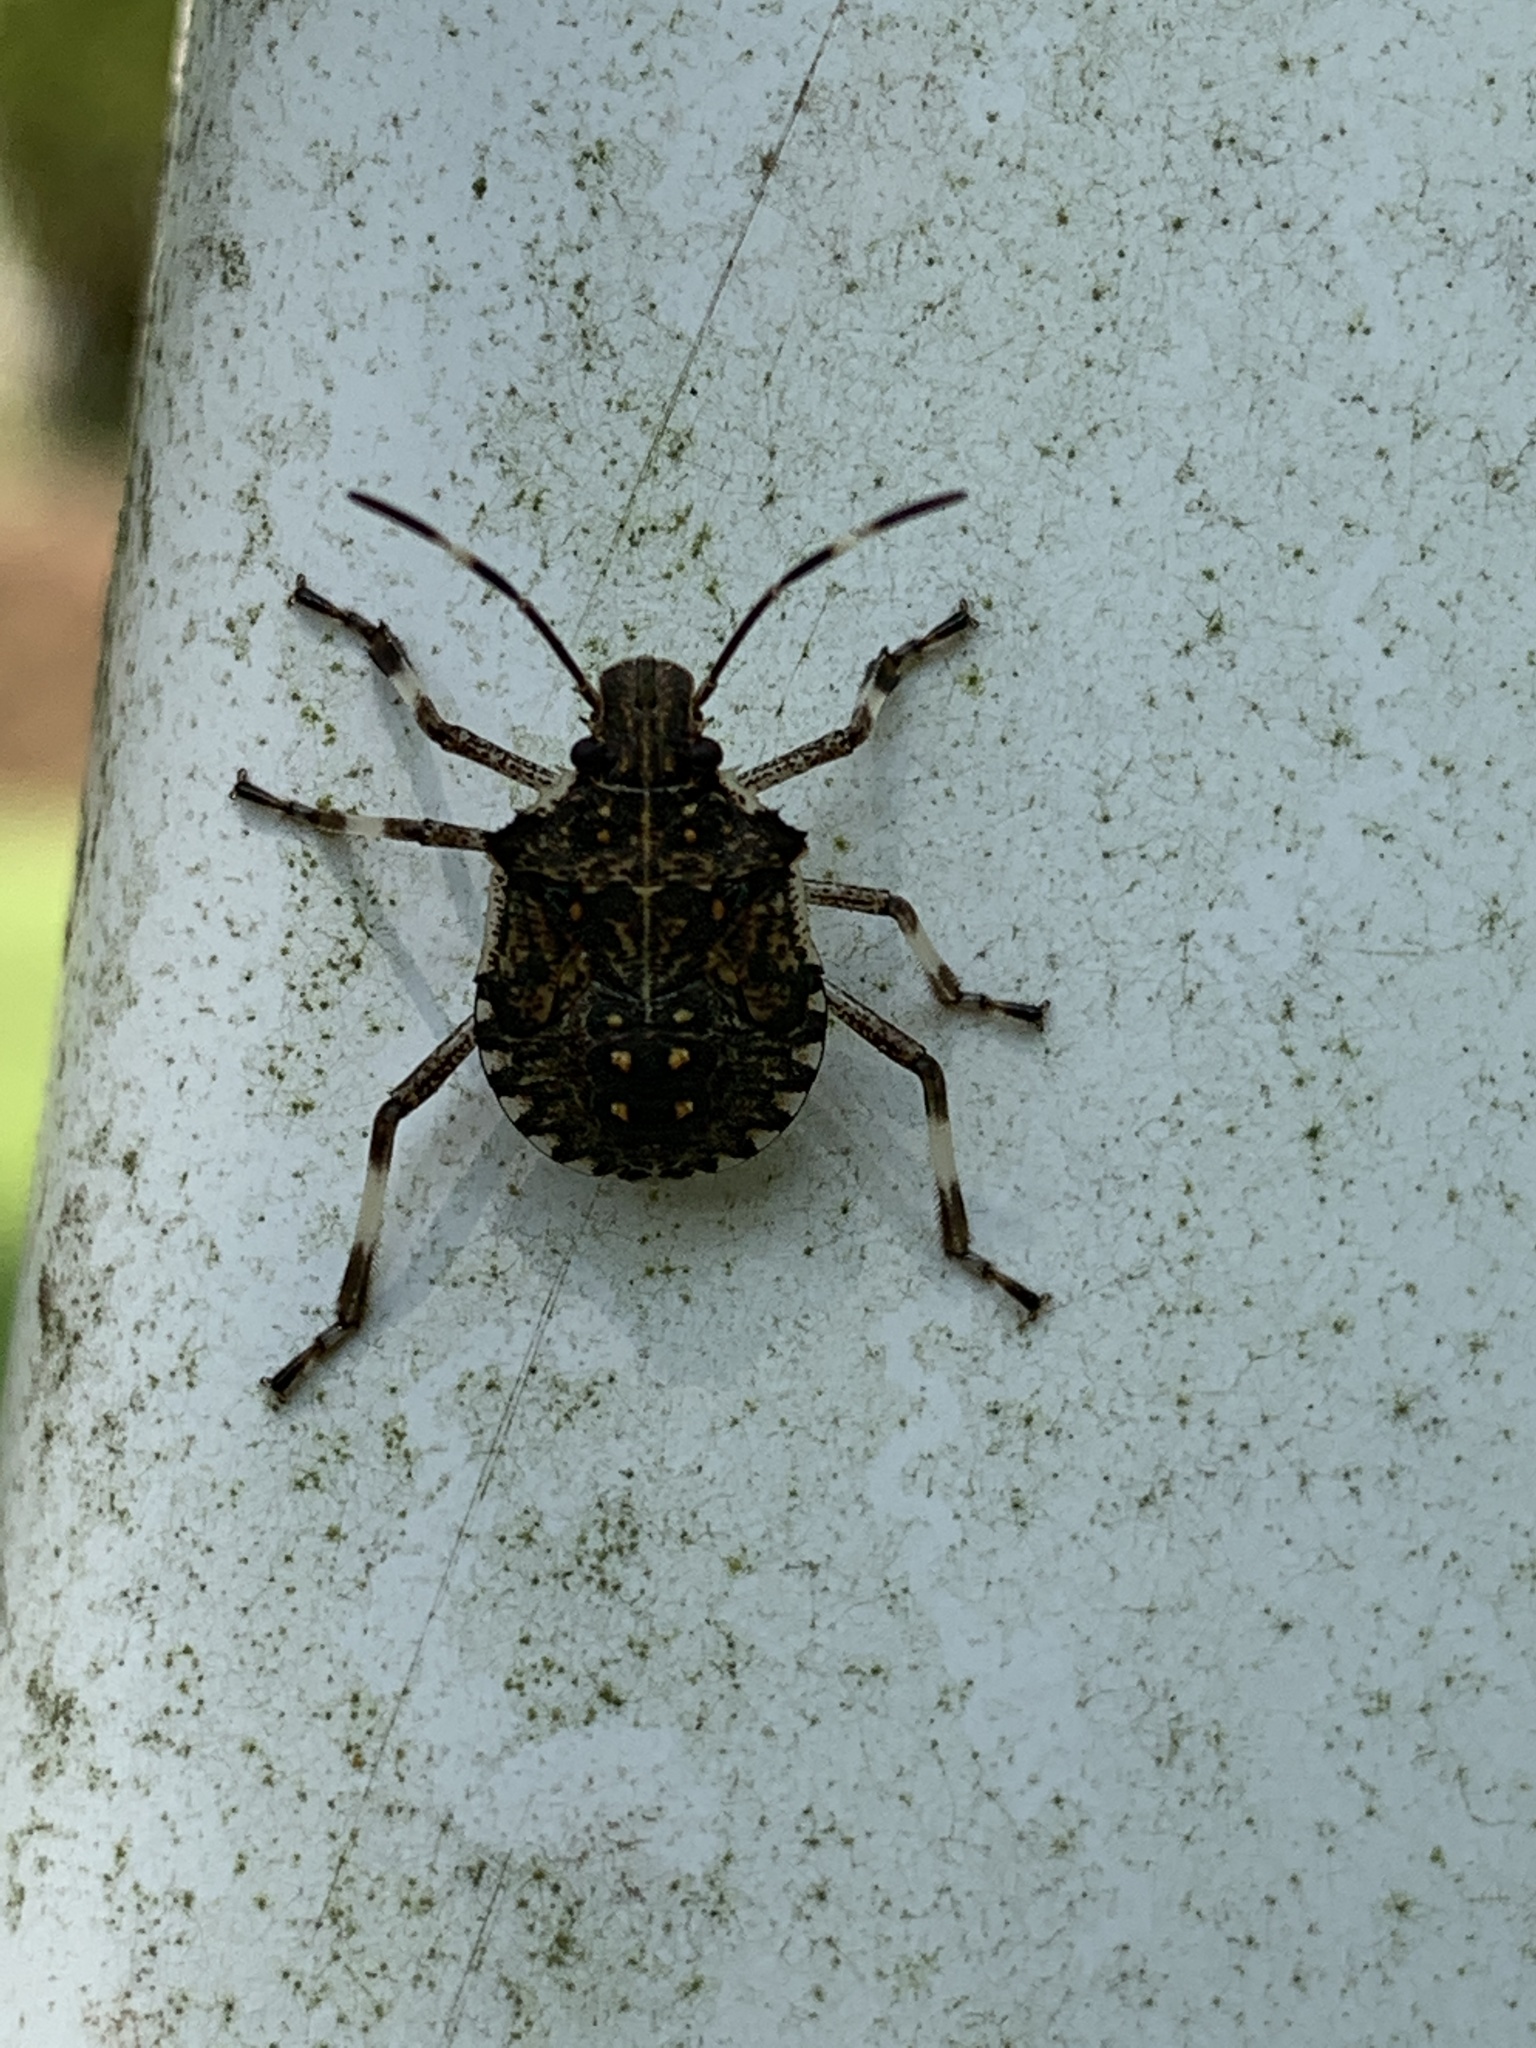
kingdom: Animalia
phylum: Arthropoda
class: Insecta
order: Hemiptera
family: Pentatomidae
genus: Halyomorpha
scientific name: Halyomorpha halys
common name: Brown marmorated stink bug
